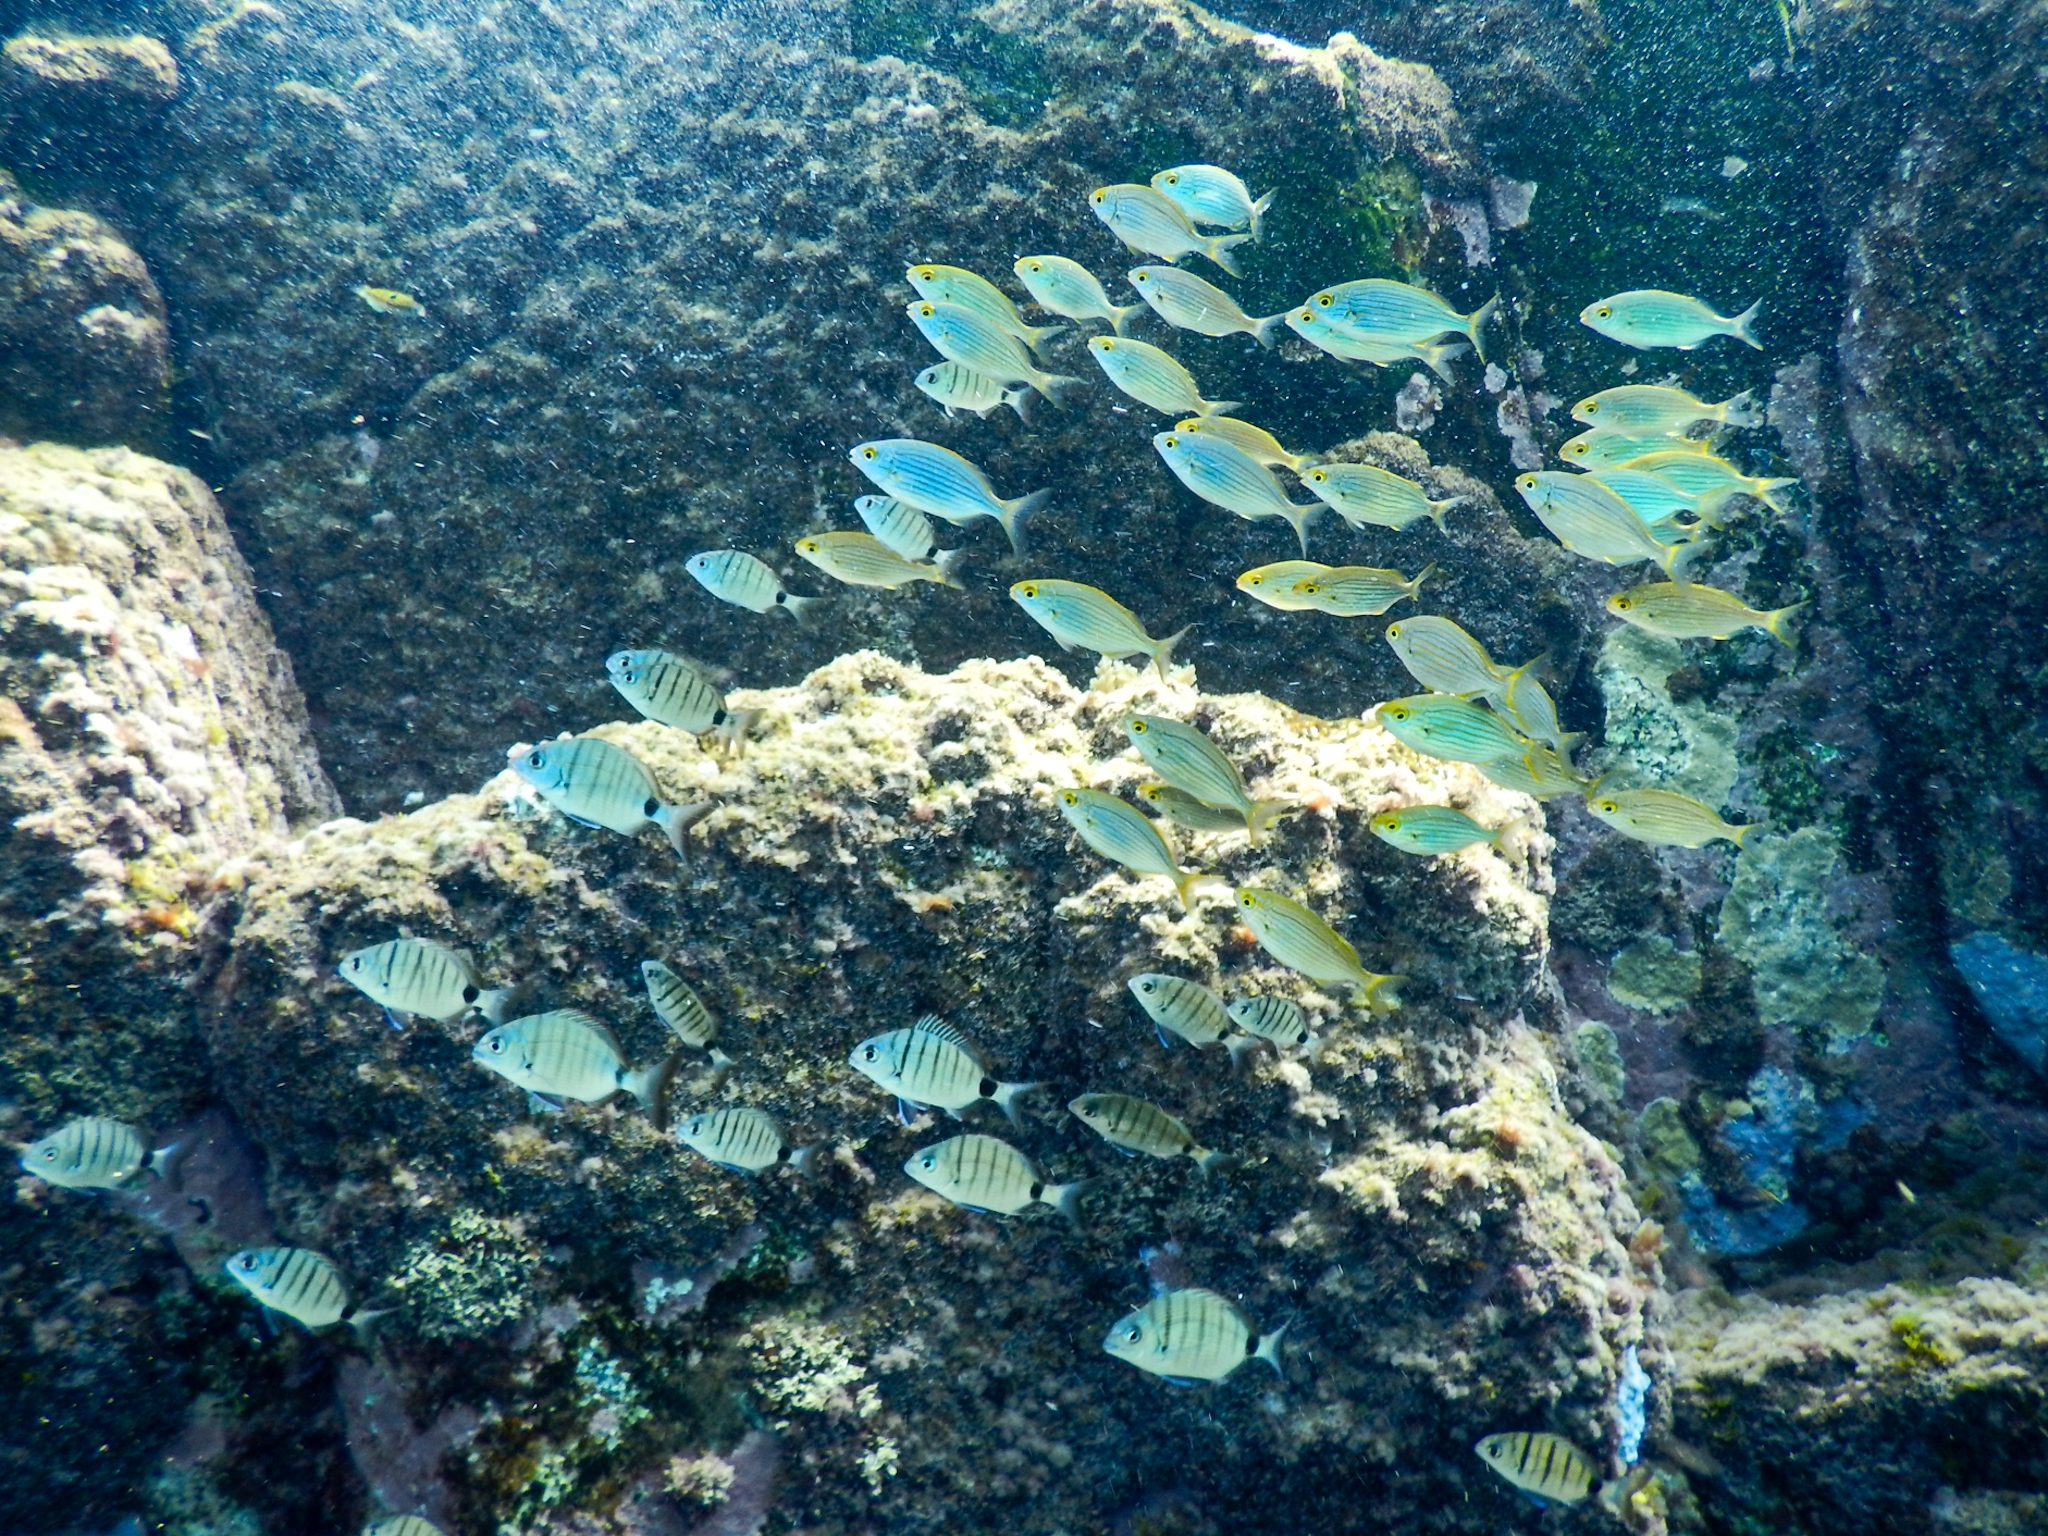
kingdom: Animalia
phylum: Chordata
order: Perciformes
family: Sparidae
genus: Diplodus
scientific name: Diplodus cadenati
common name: Moroccan white seabream
